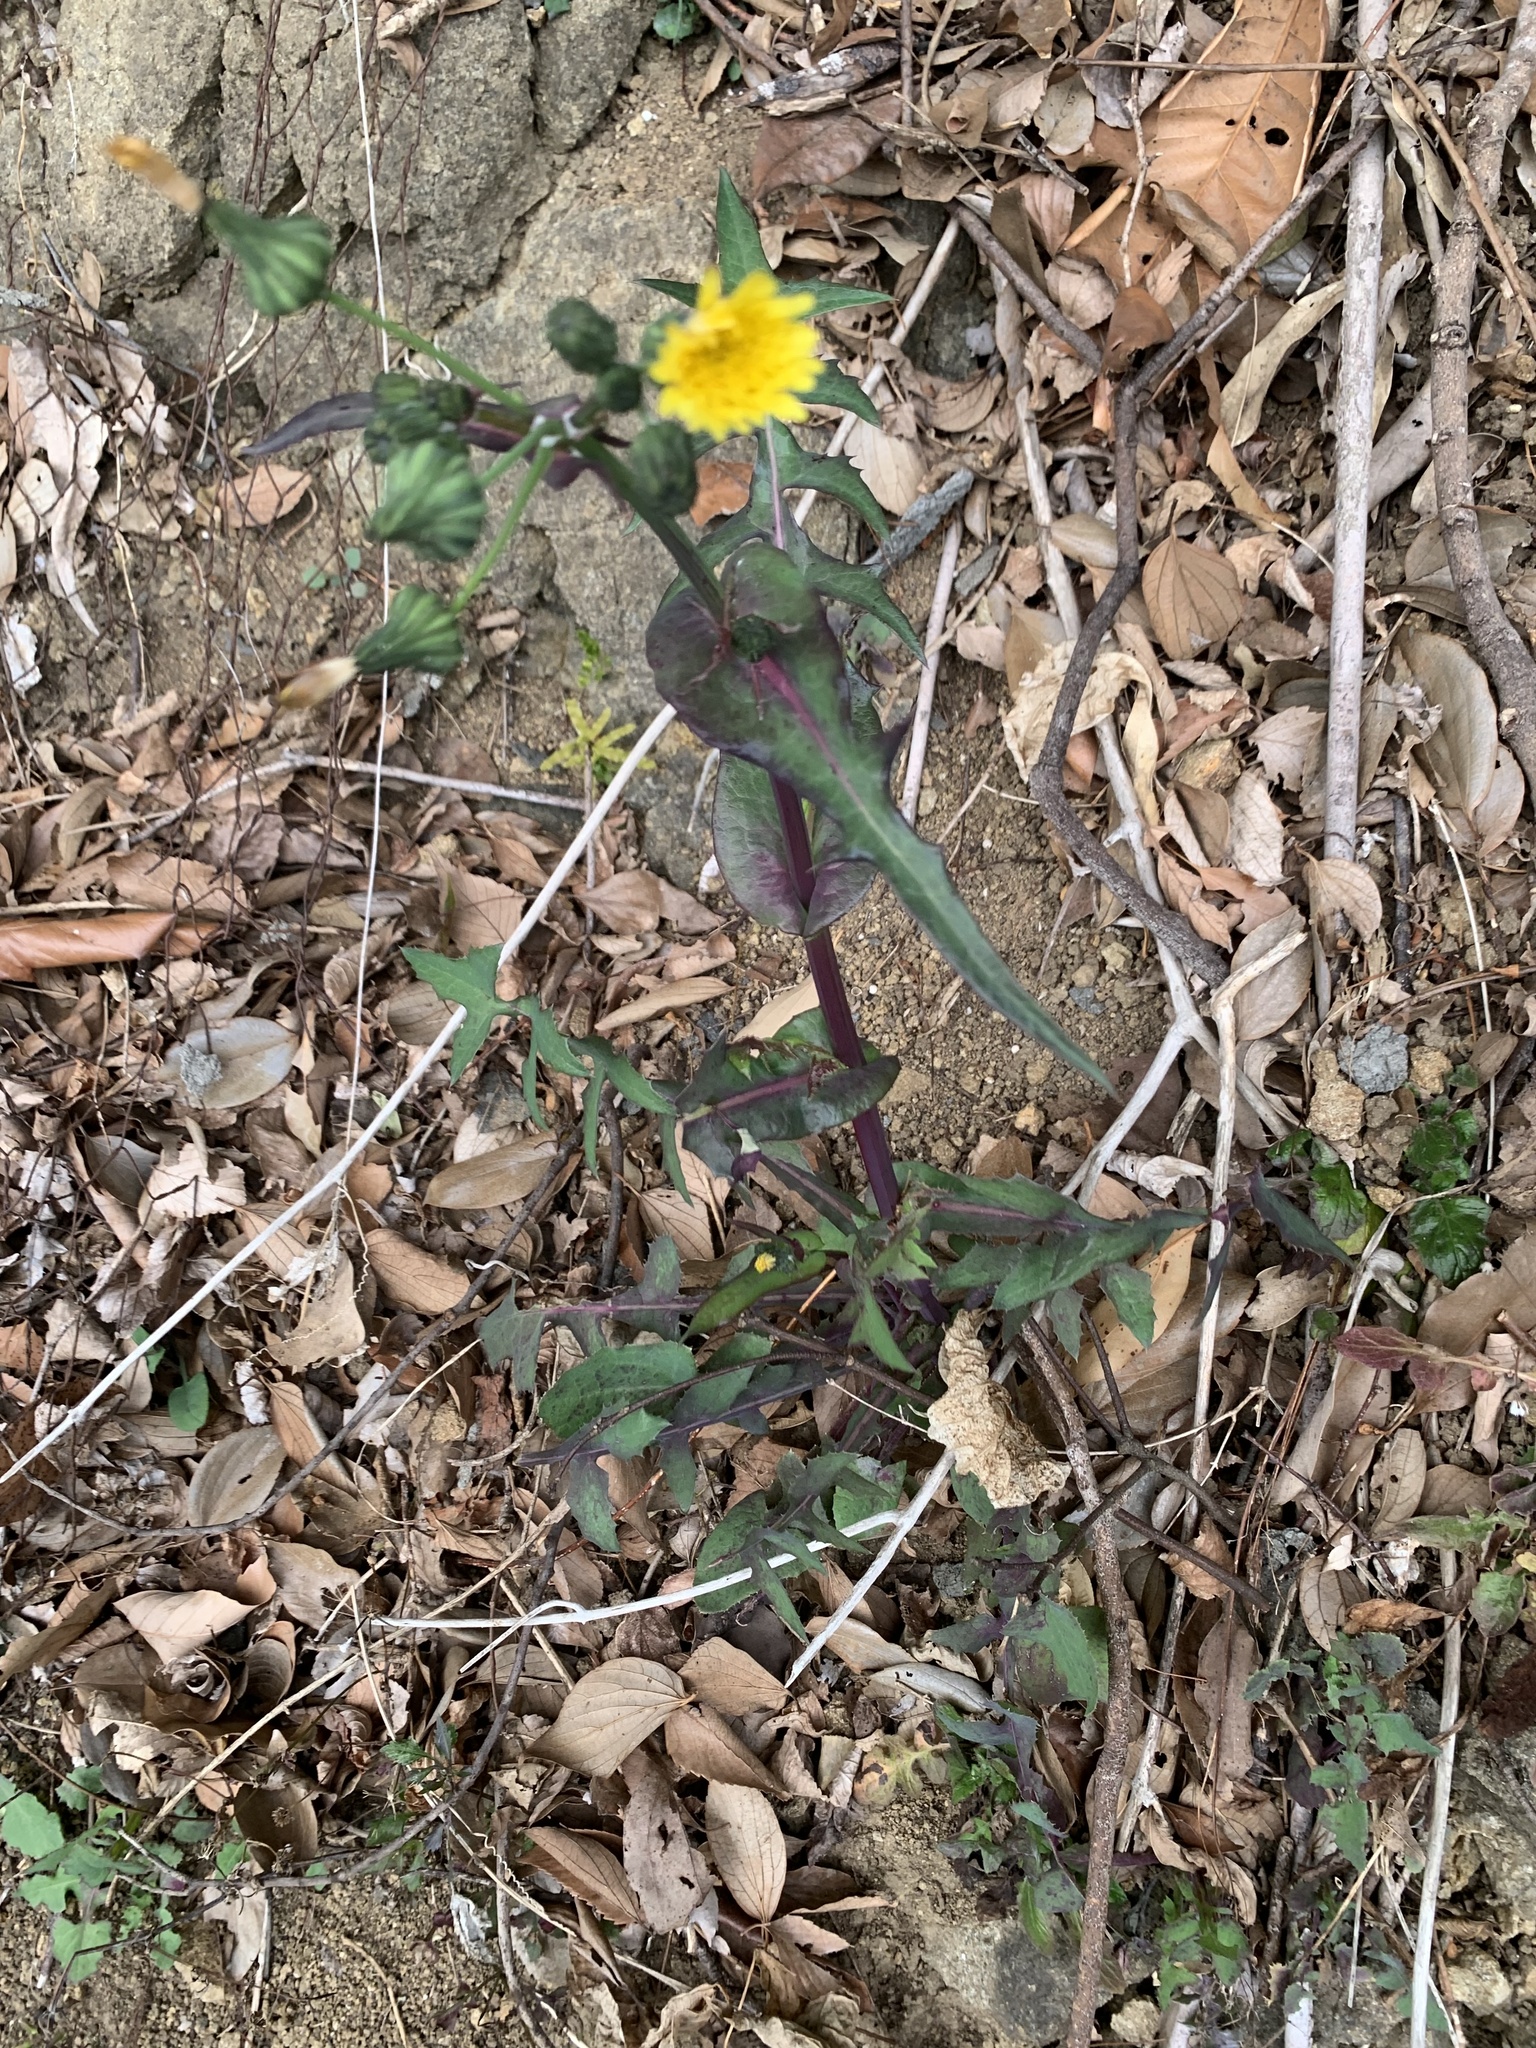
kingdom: Plantae
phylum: Tracheophyta
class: Magnoliopsida
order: Asterales
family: Asteraceae
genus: Sonchus
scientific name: Sonchus oleraceus
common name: Common sowthistle
